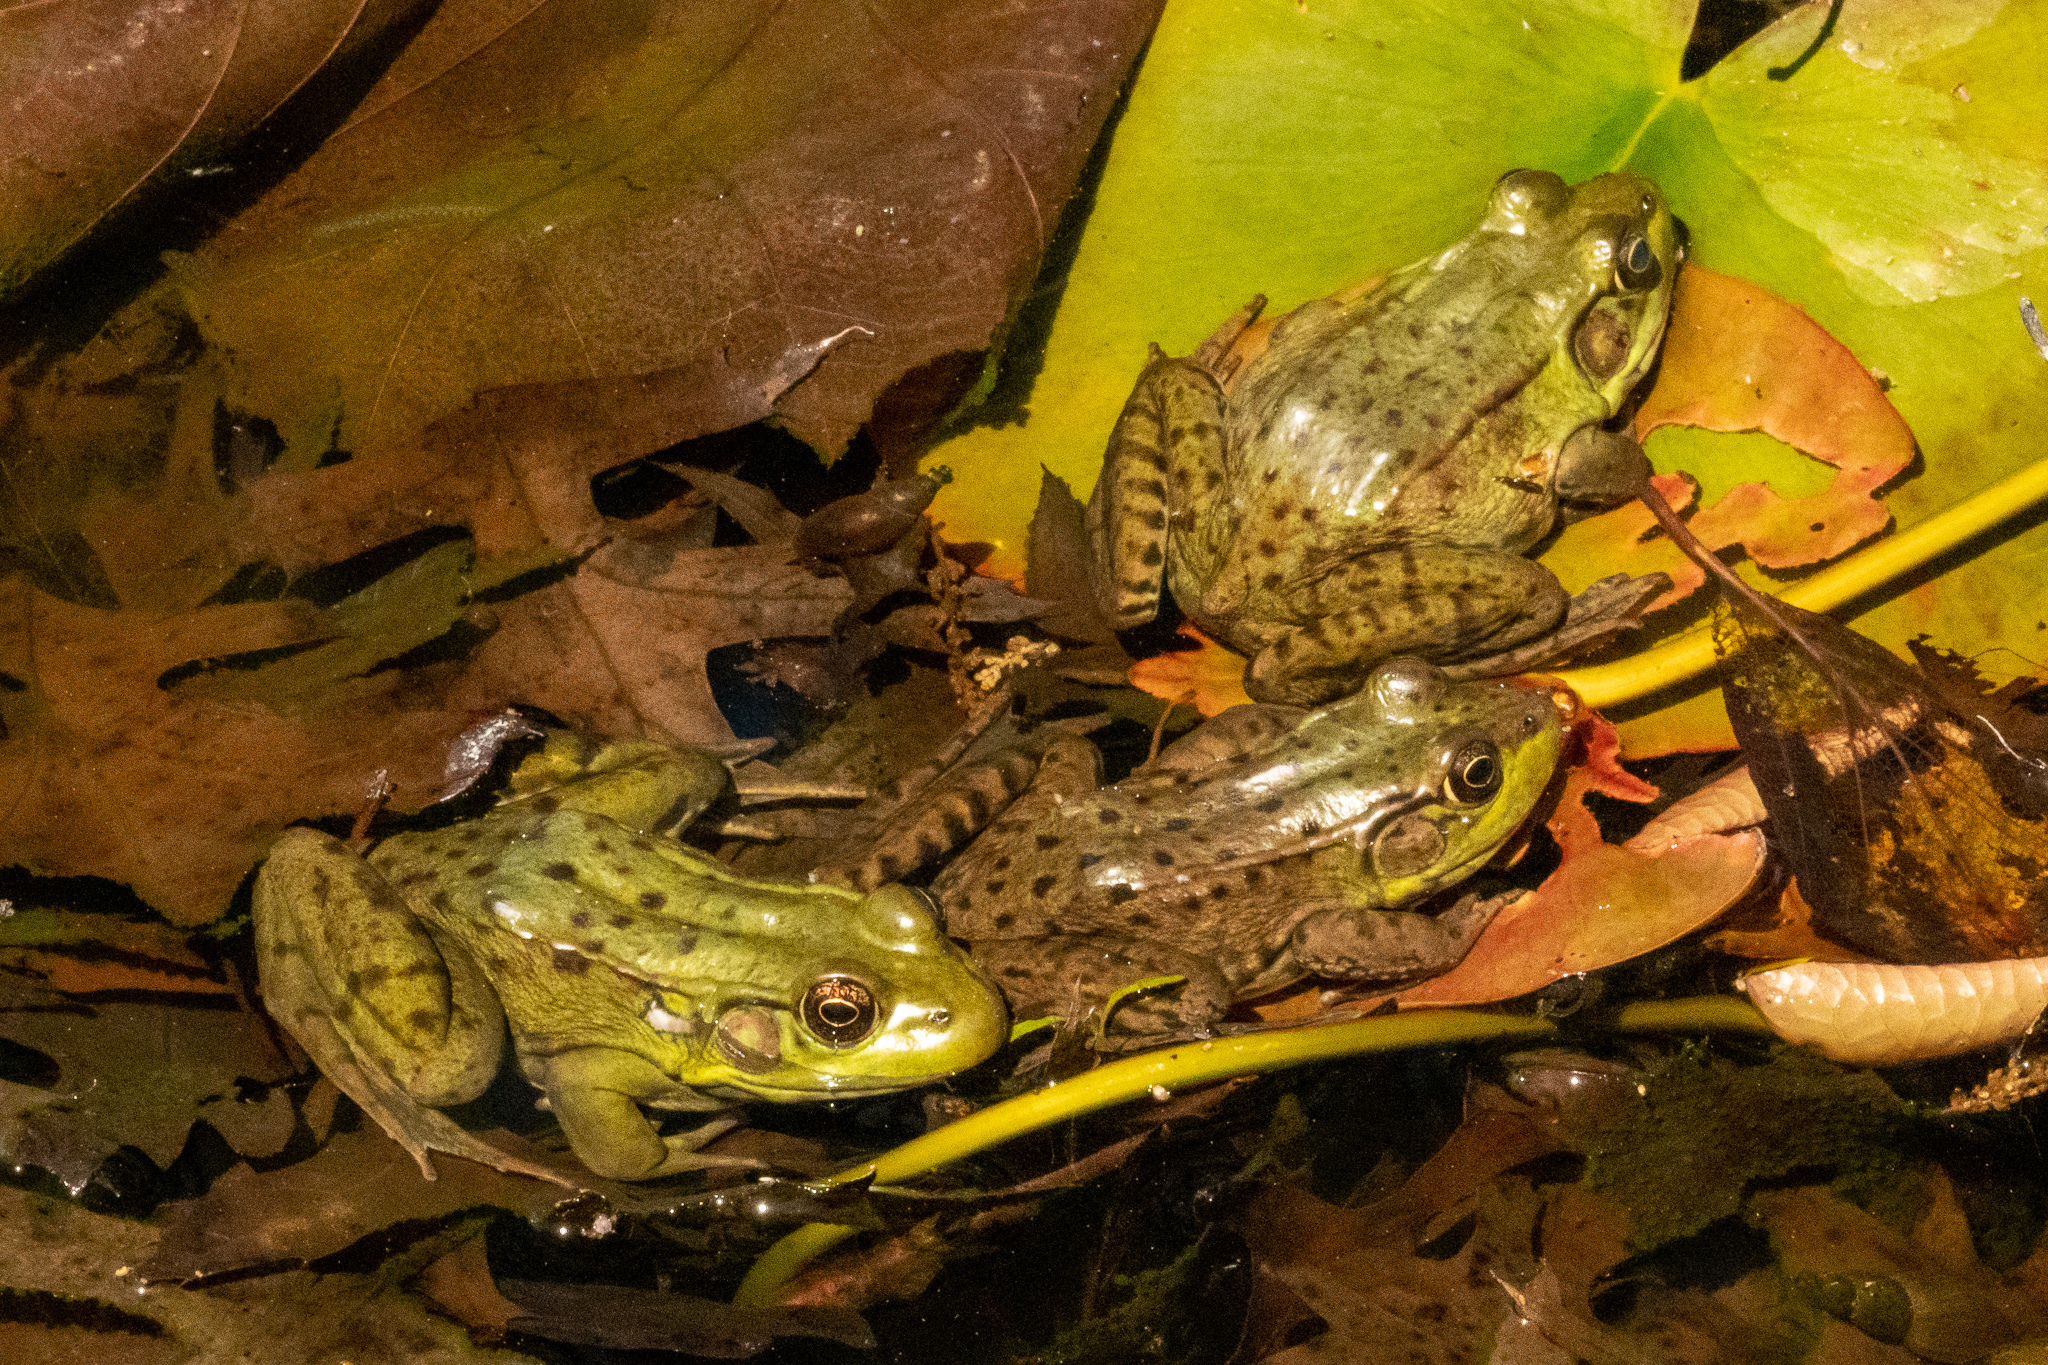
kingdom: Animalia
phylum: Chordata
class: Amphibia
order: Anura
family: Ranidae
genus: Lithobates
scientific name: Lithobates clamitans
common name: Green frog
